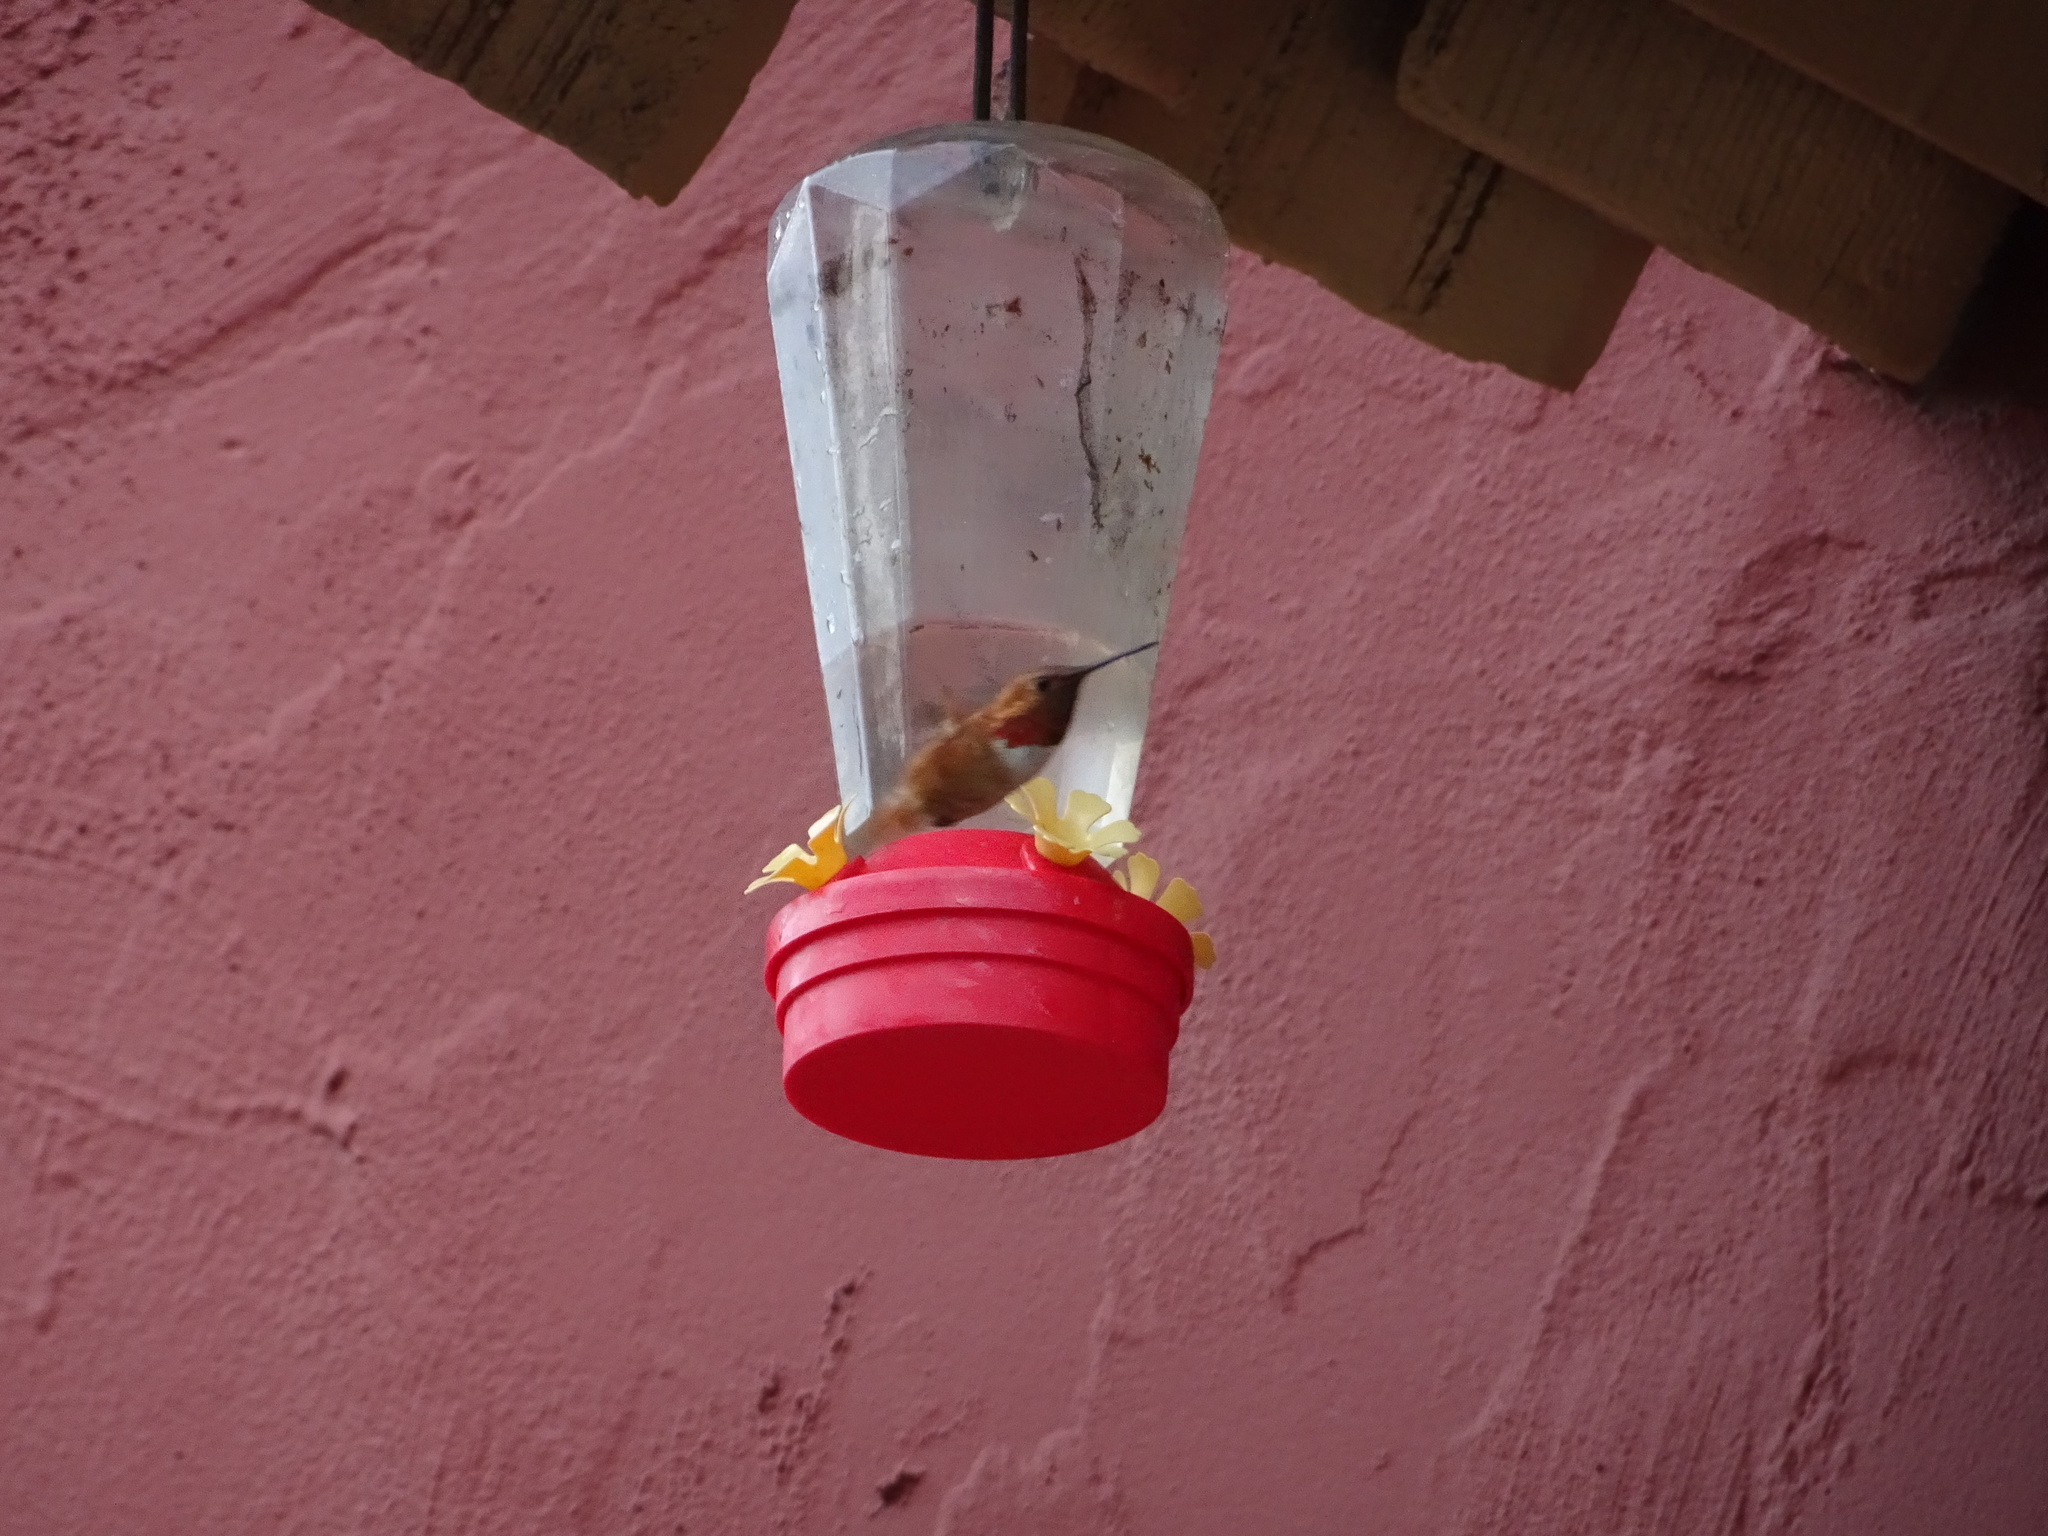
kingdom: Animalia
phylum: Chordata
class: Aves
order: Apodiformes
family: Trochilidae
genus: Selasphorus
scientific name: Selasphorus rufus
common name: Rufous hummingbird
